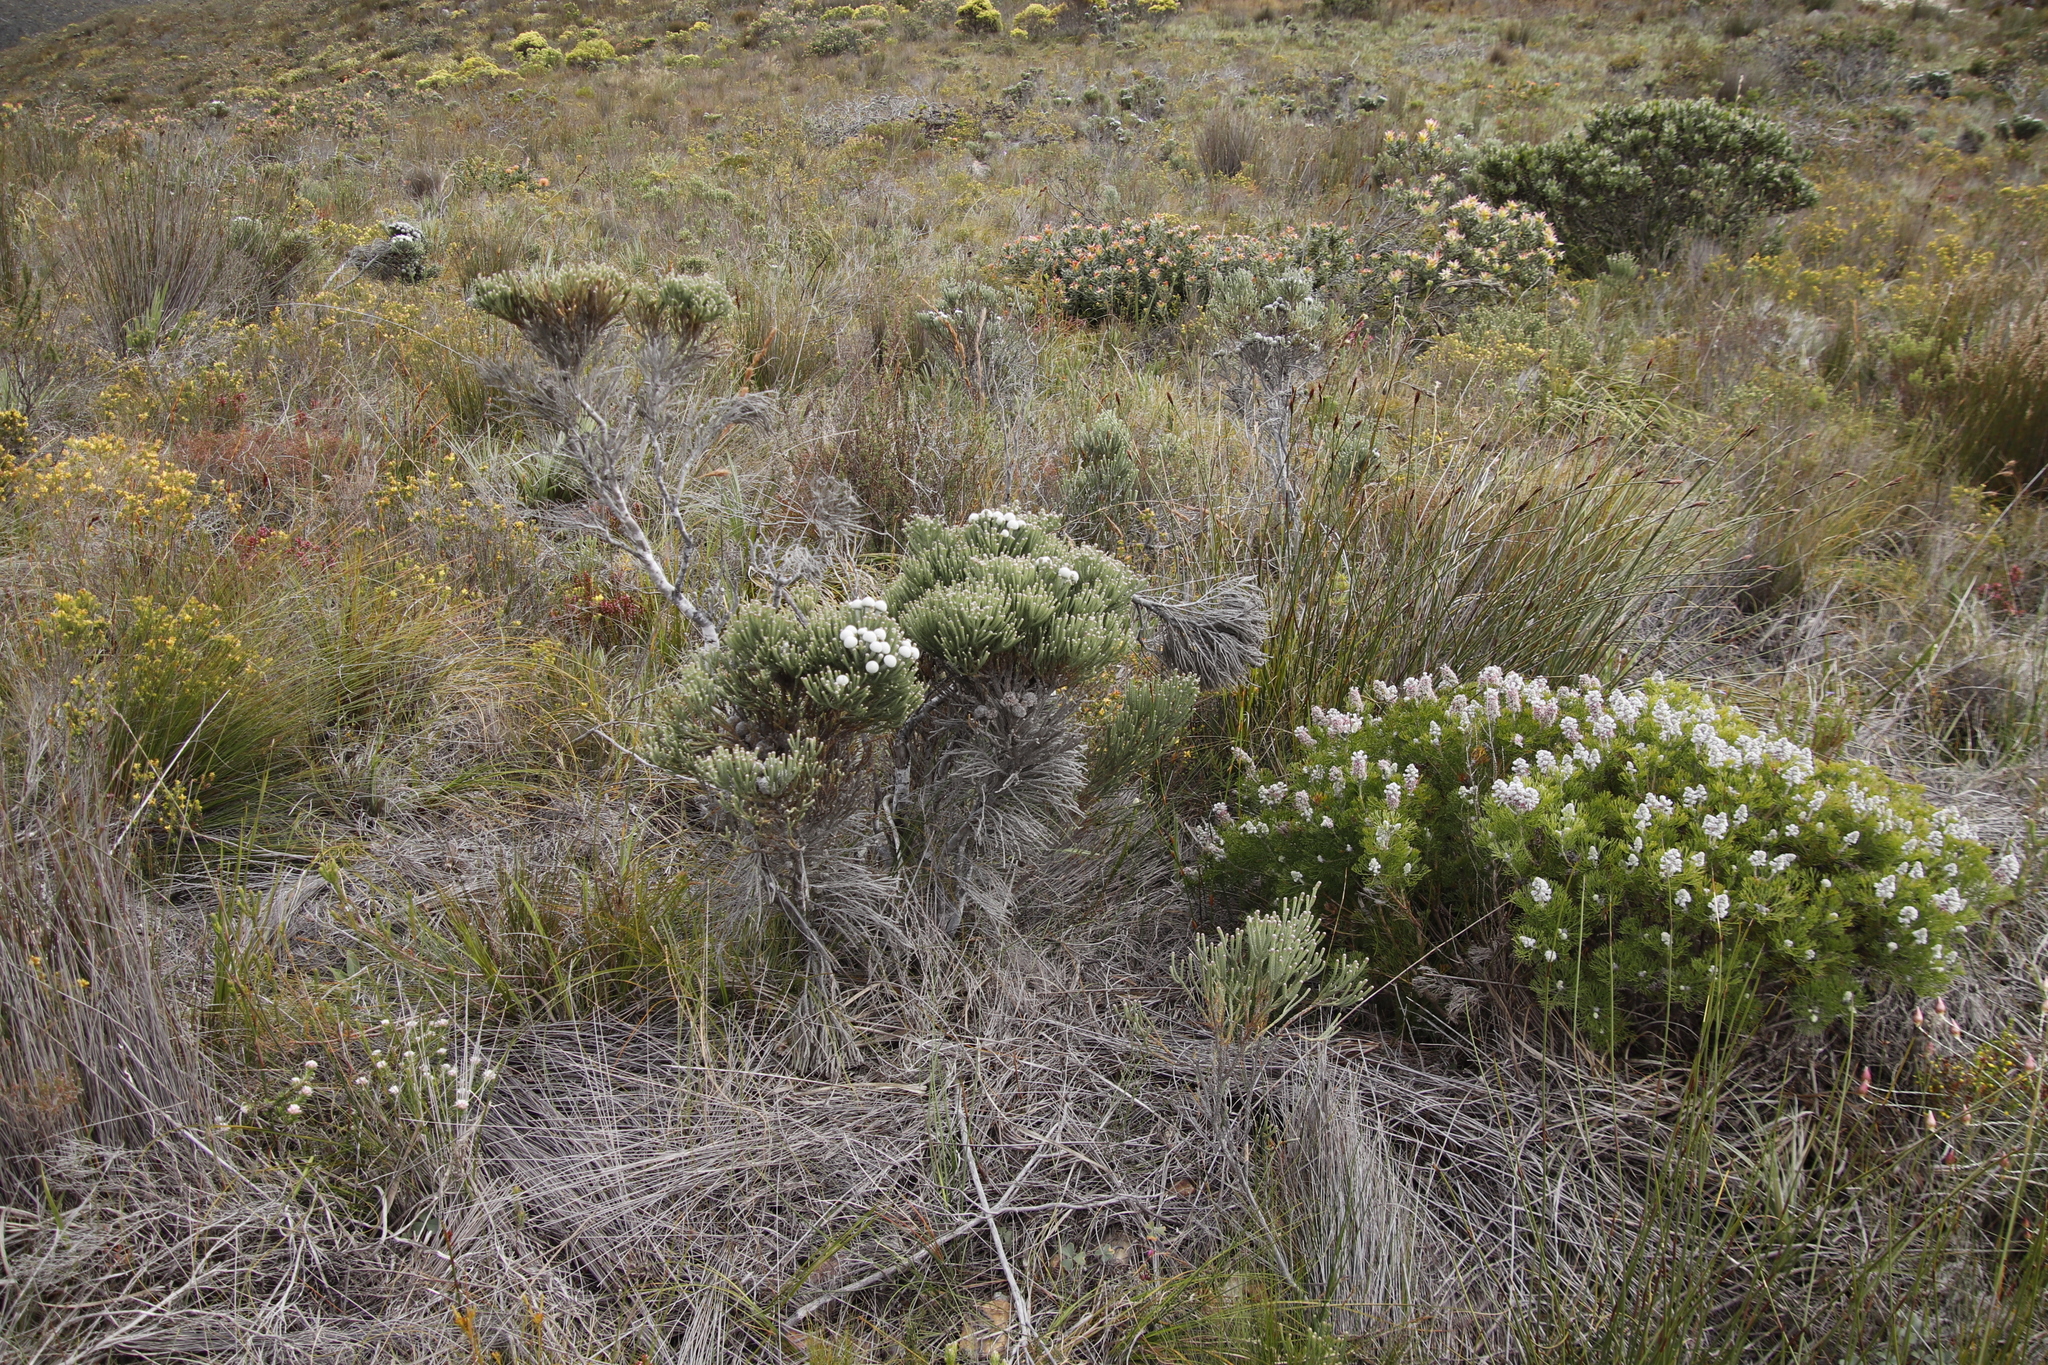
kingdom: Plantae
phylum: Tracheophyta
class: Magnoliopsida
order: Bruniales
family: Bruniaceae
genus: Brunia
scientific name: Brunia laevis
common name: Silver brunia
